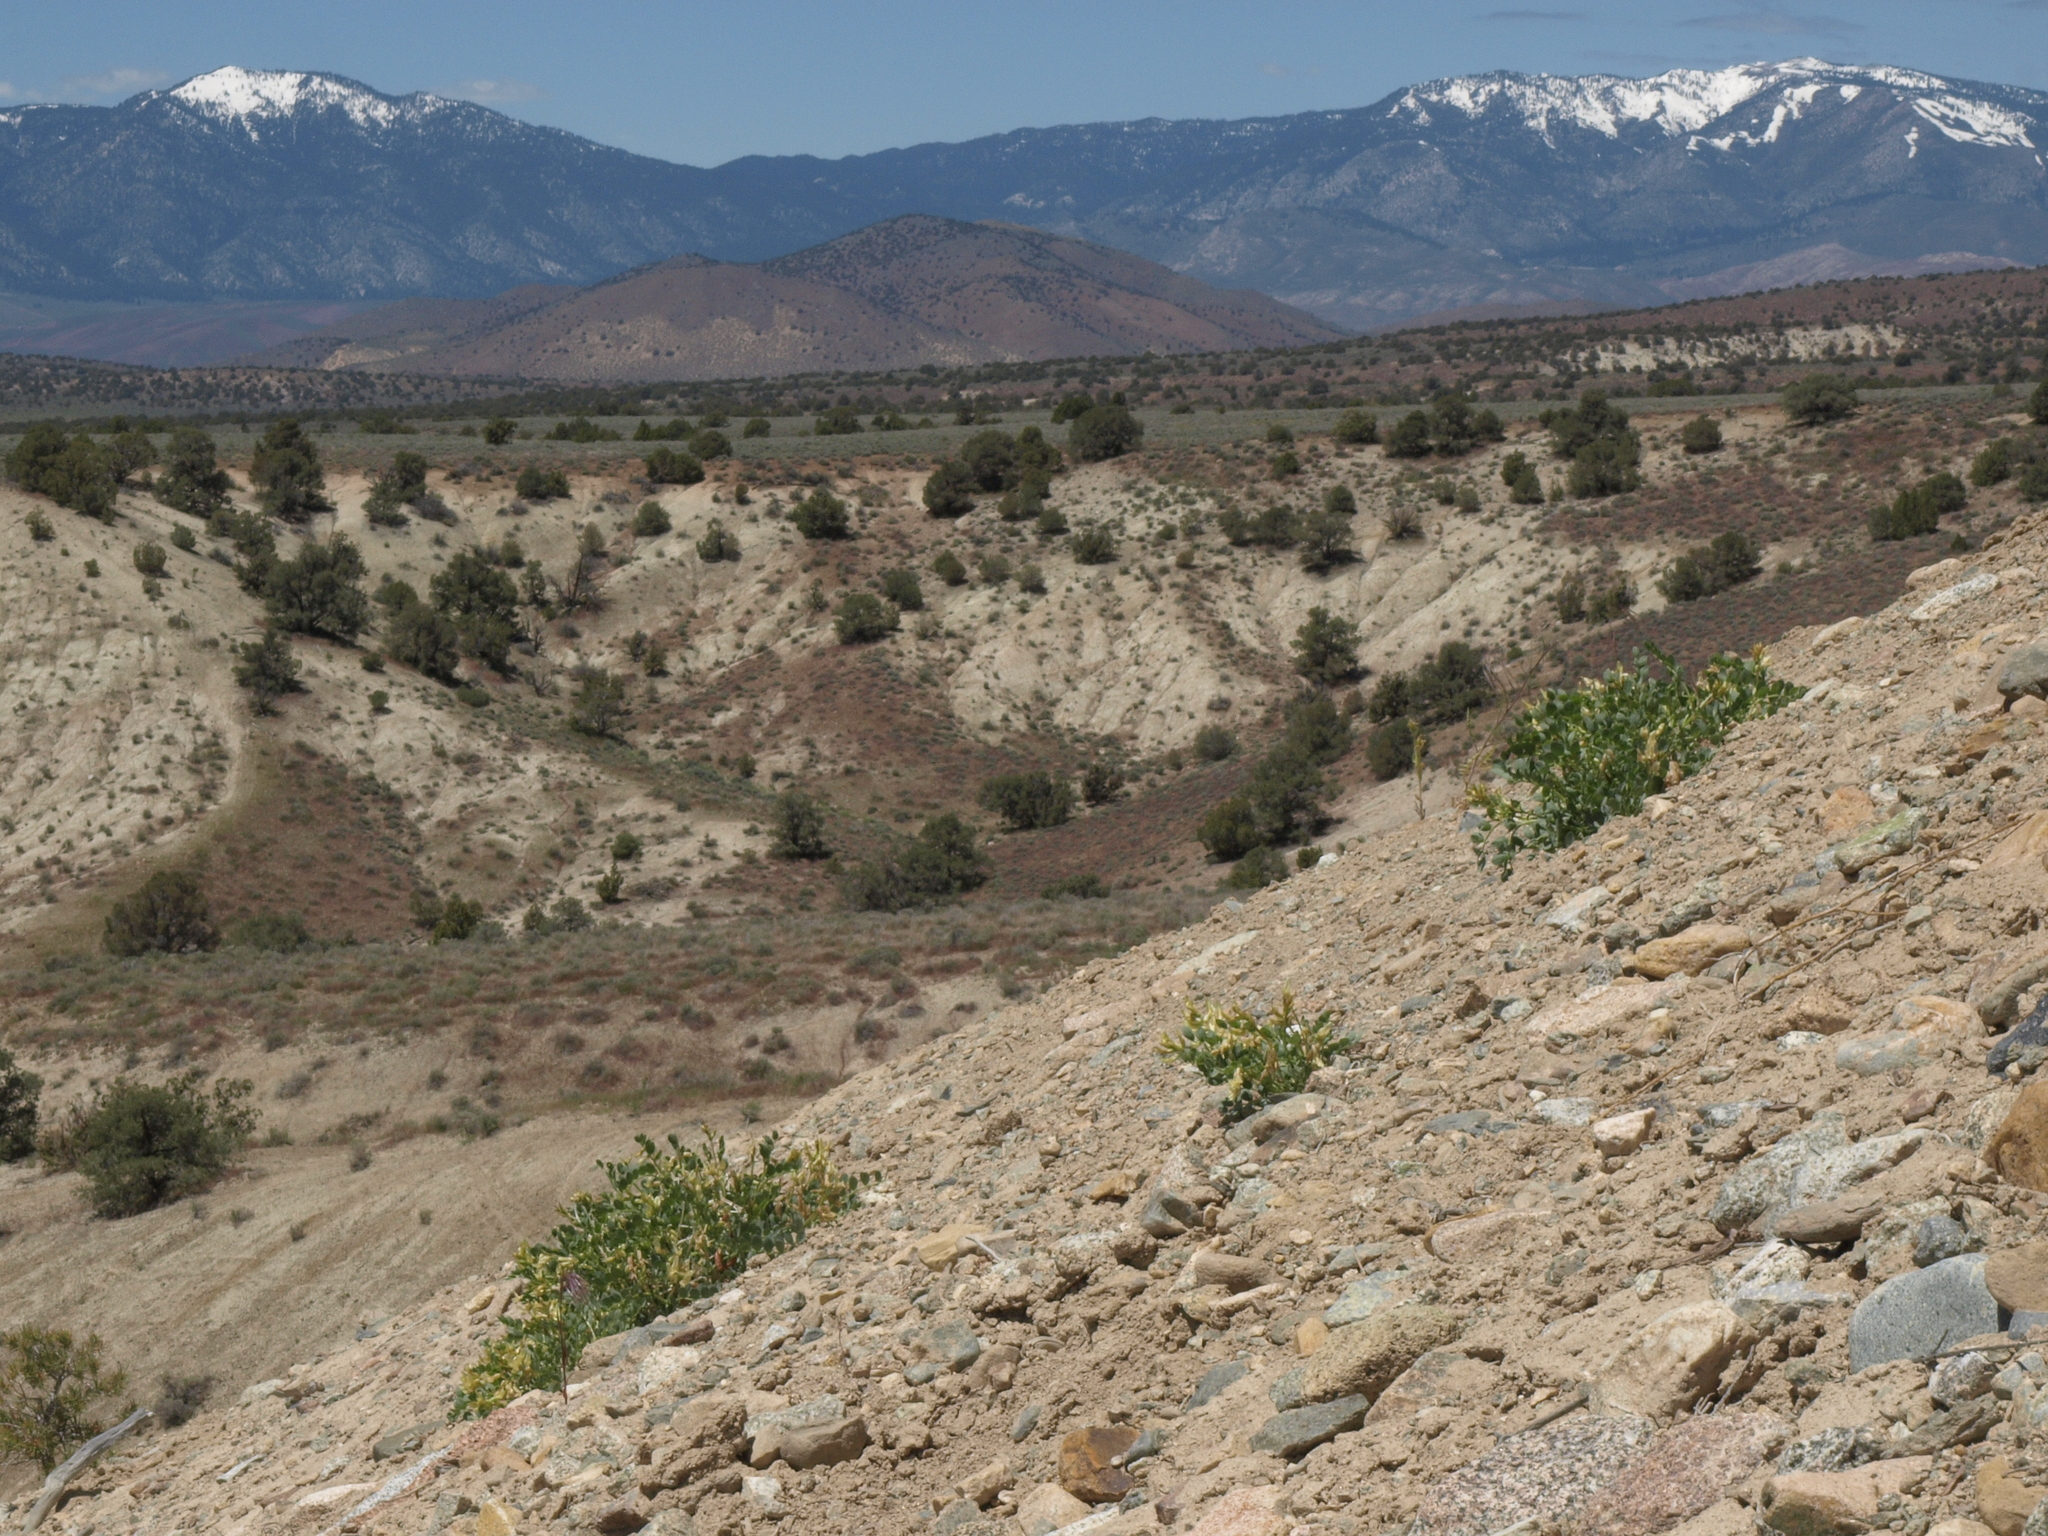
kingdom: Plantae
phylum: Tracheophyta
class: Magnoliopsida
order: Fabales
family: Fabaceae
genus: Astragalus
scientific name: Astragalus oophorus
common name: Egg milkvetch
